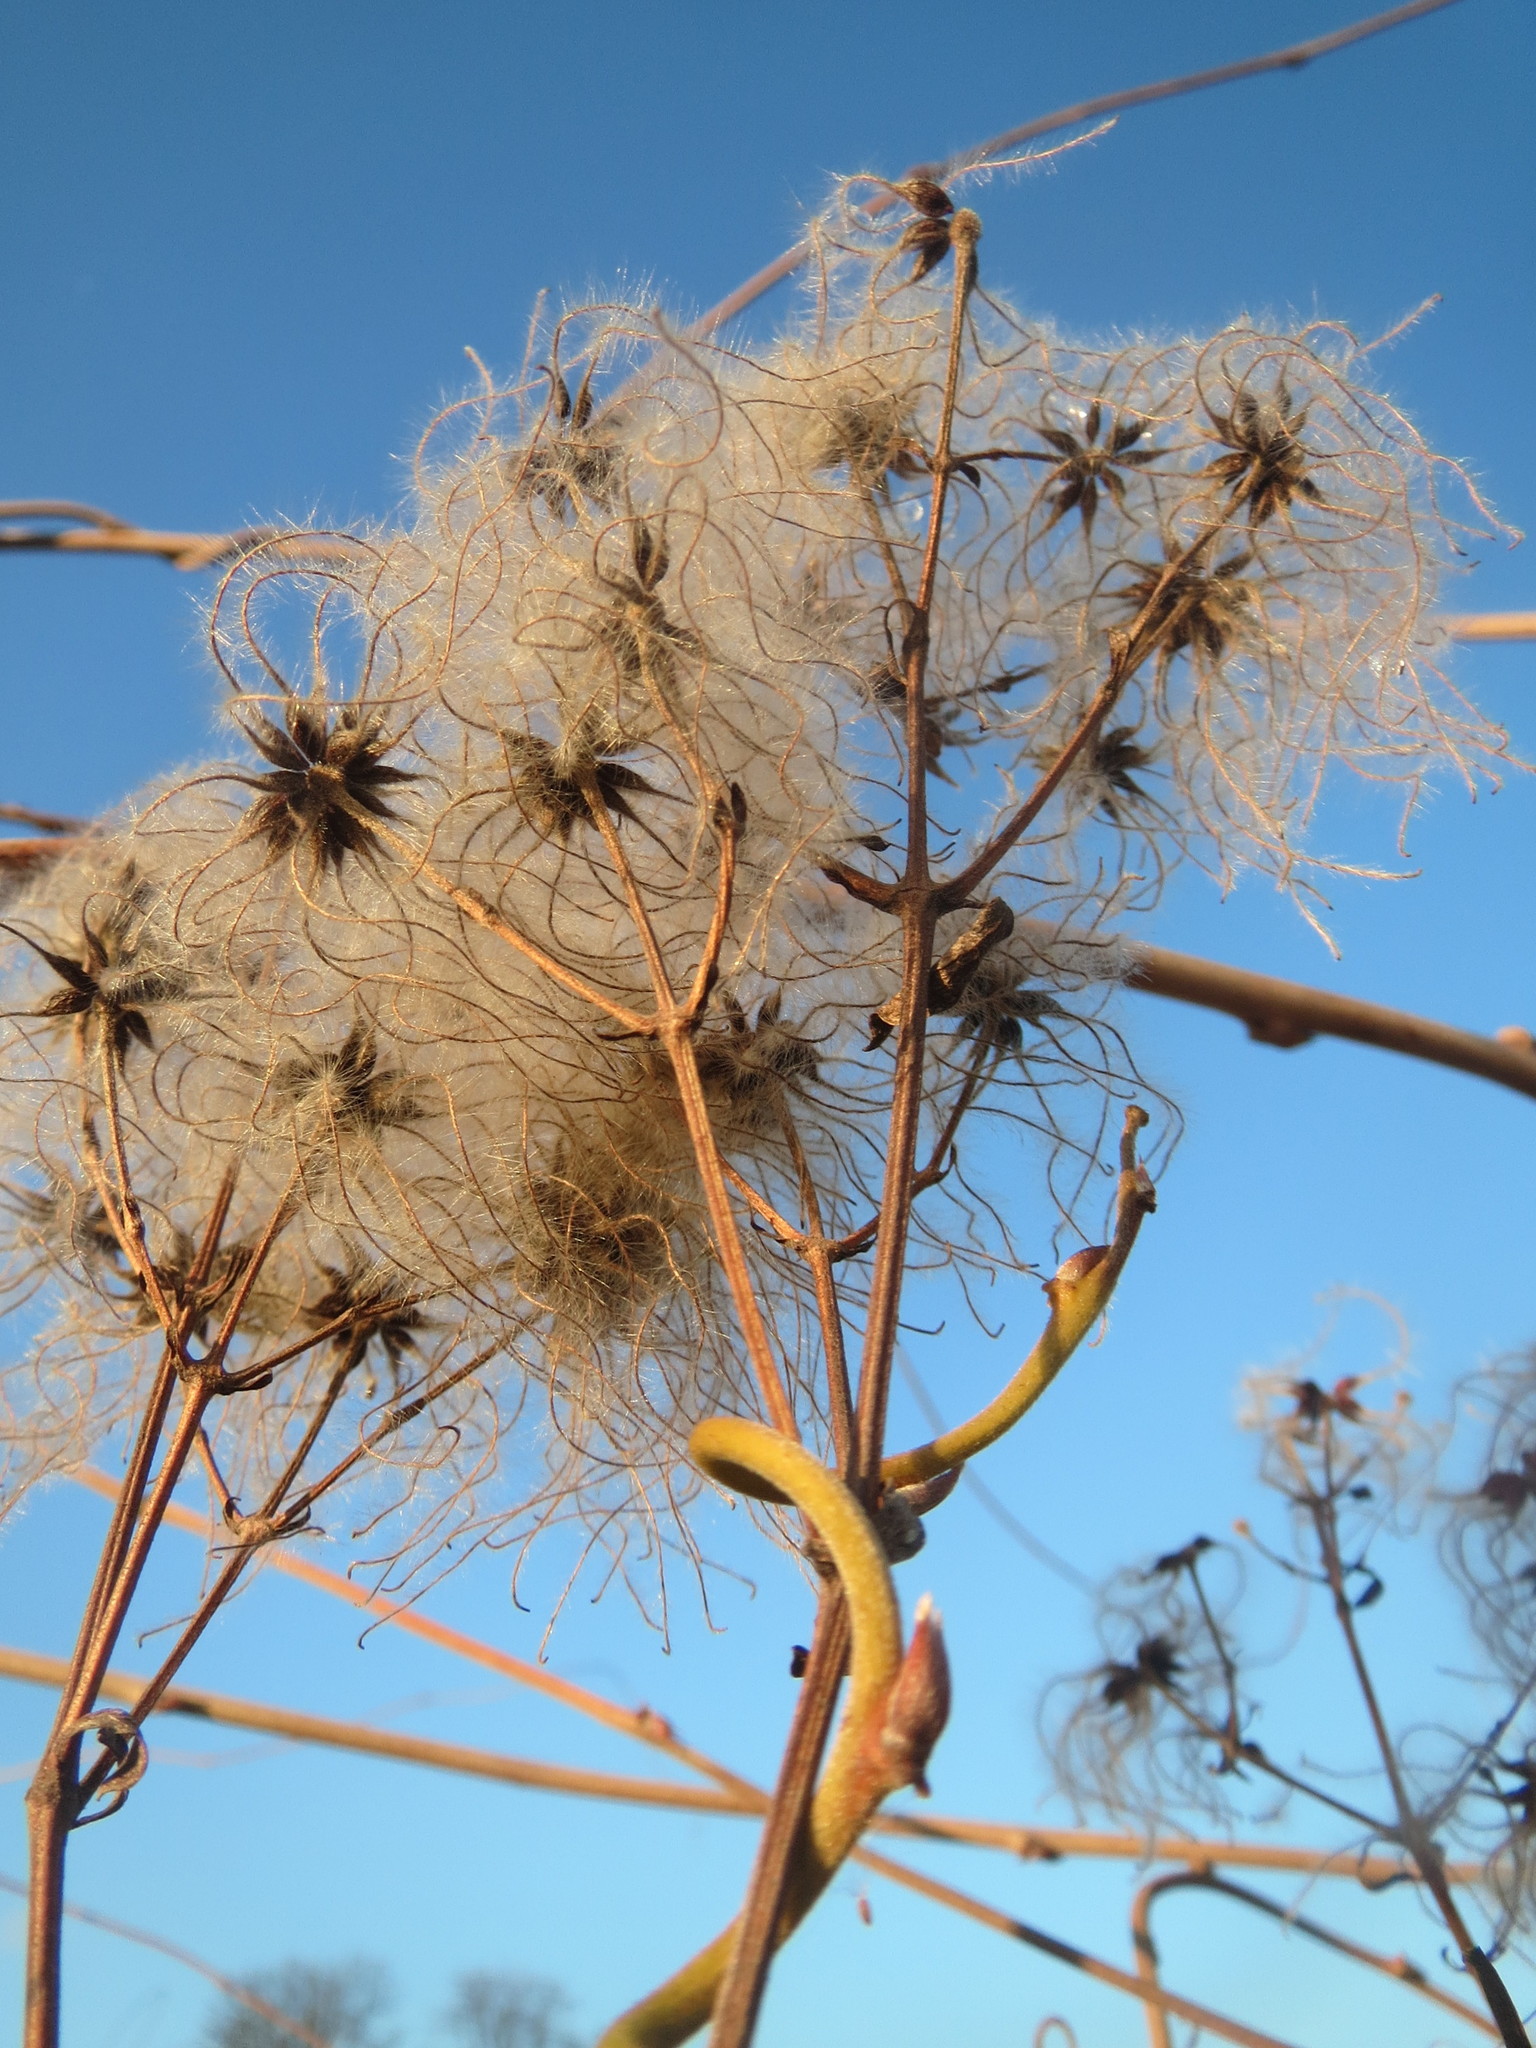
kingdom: Plantae
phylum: Tracheophyta
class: Magnoliopsida
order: Ranunculales
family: Ranunculaceae
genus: Clematis
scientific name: Clematis vitalba
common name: Evergreen clematis
